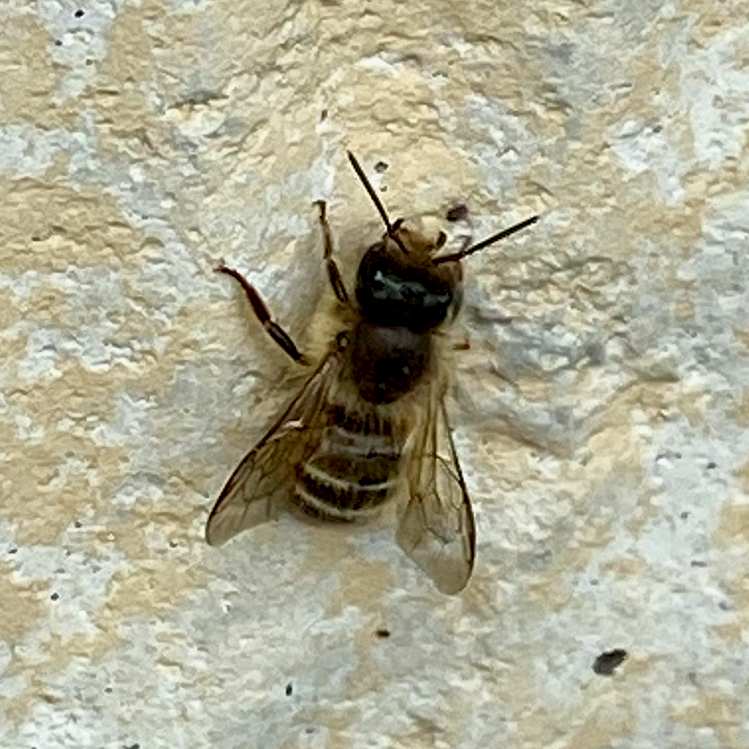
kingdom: Animalia
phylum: Arthropoda
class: Insecta
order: Hymenoptera
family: Megachilidae
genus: Osmia
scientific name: Osmia cornifrons
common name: Horn-faced bee
